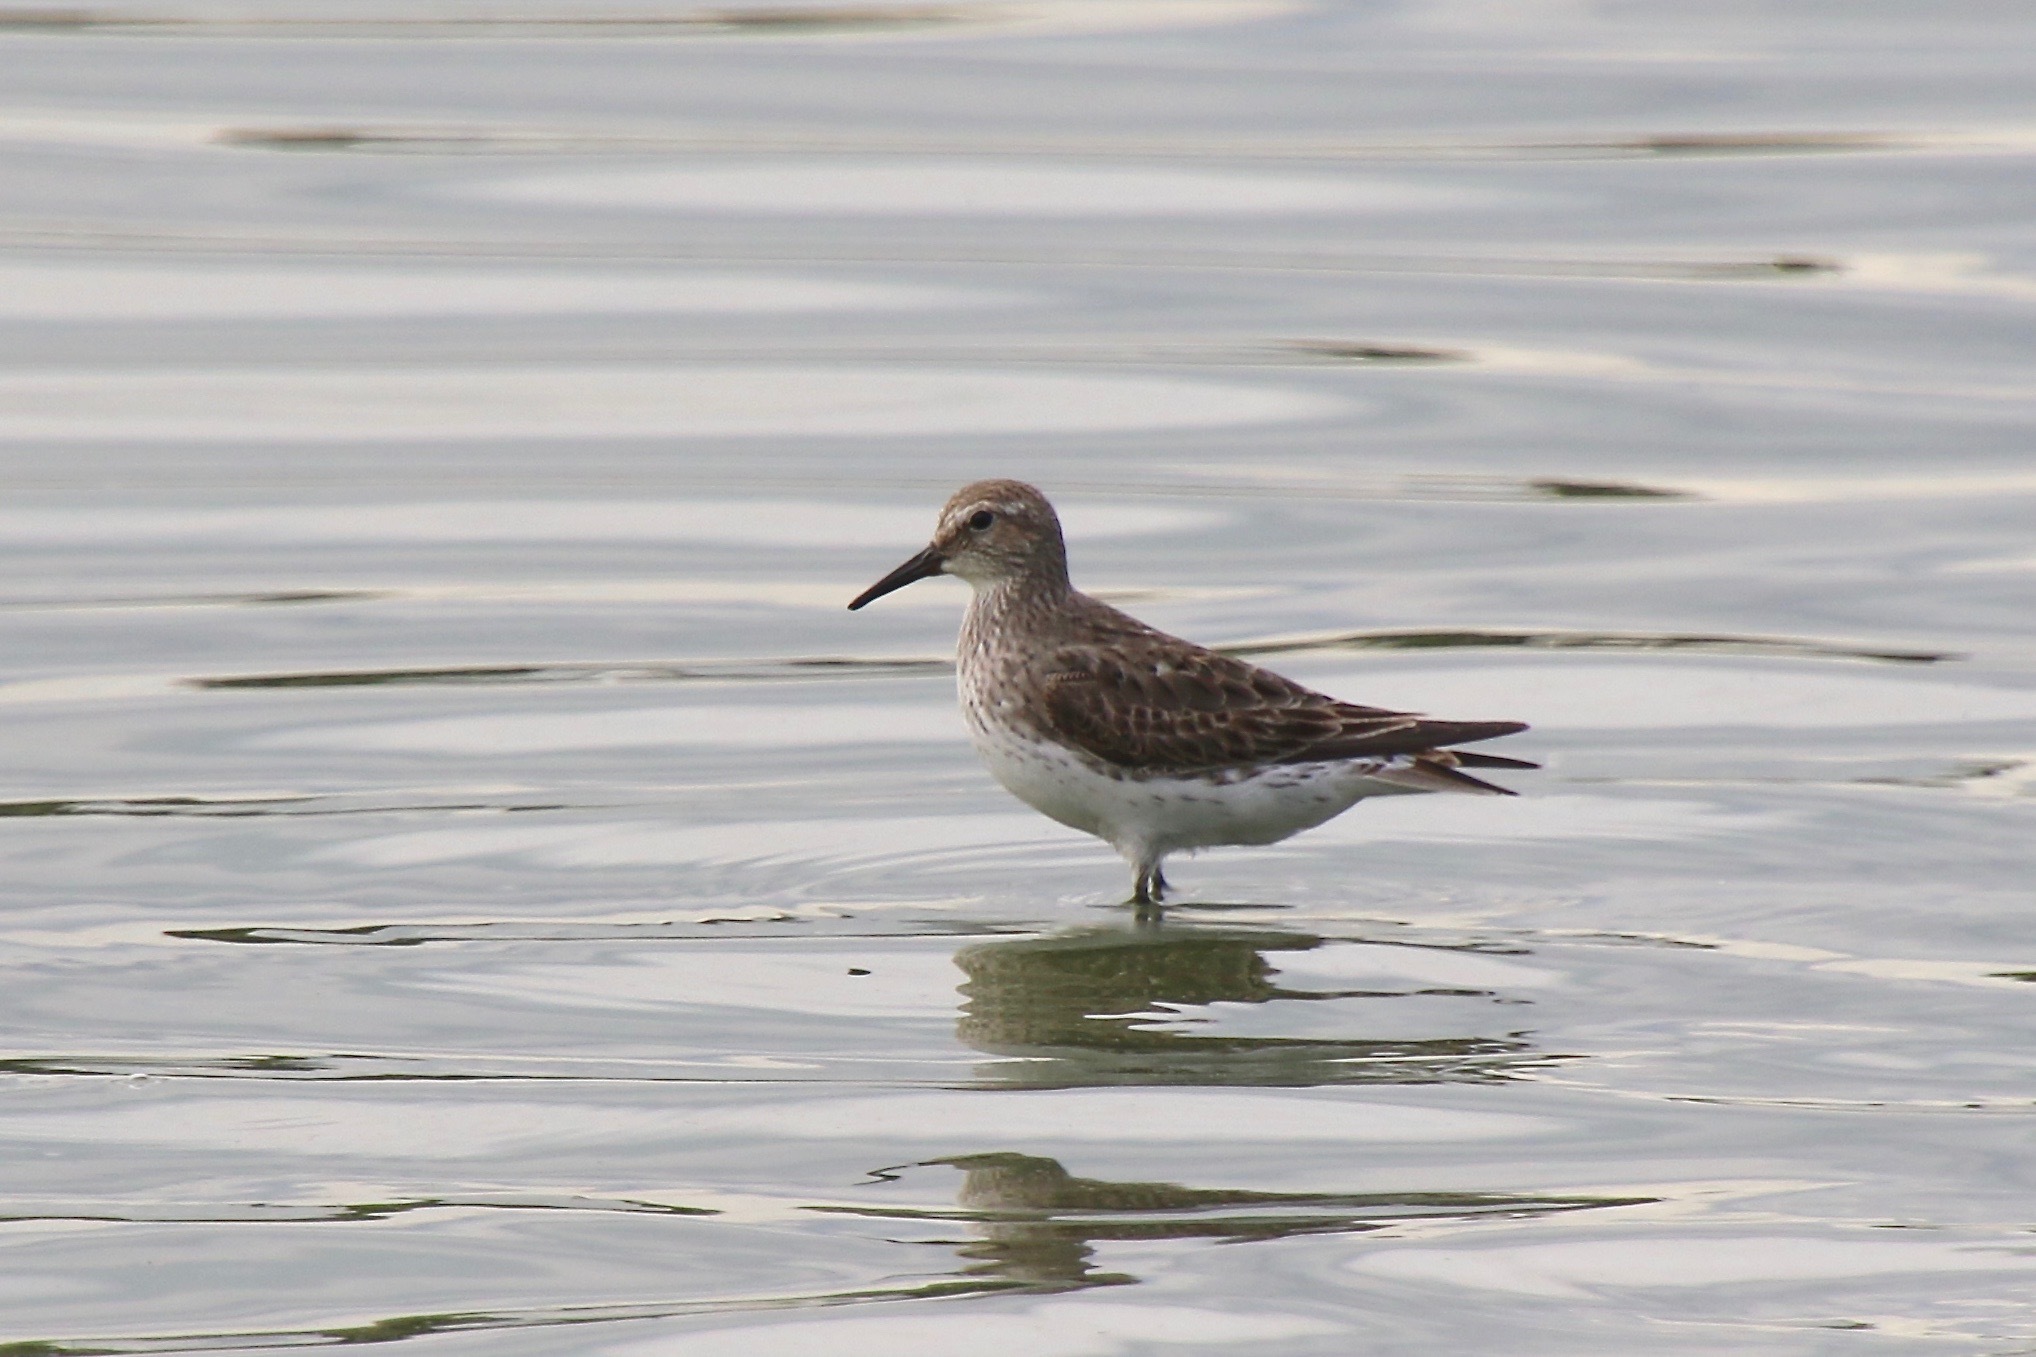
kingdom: Animalia
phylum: Chordata
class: Aves
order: Charadriiformes
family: Scolopacidae
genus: Calidris
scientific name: Calidris fuscicollis
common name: White-rumped sandpiper
